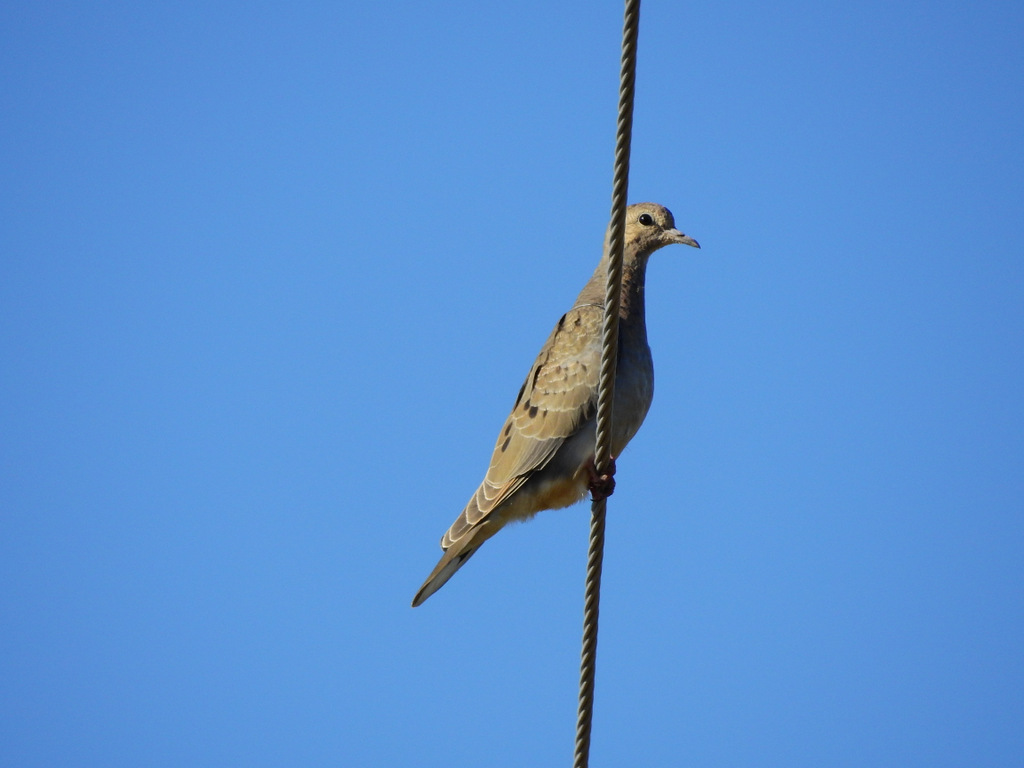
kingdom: Animalia
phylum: Chordata
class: Aves
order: Columbiformes
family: Columbidae
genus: Zenaida
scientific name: Zenaida auriculata
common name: Eared dove
